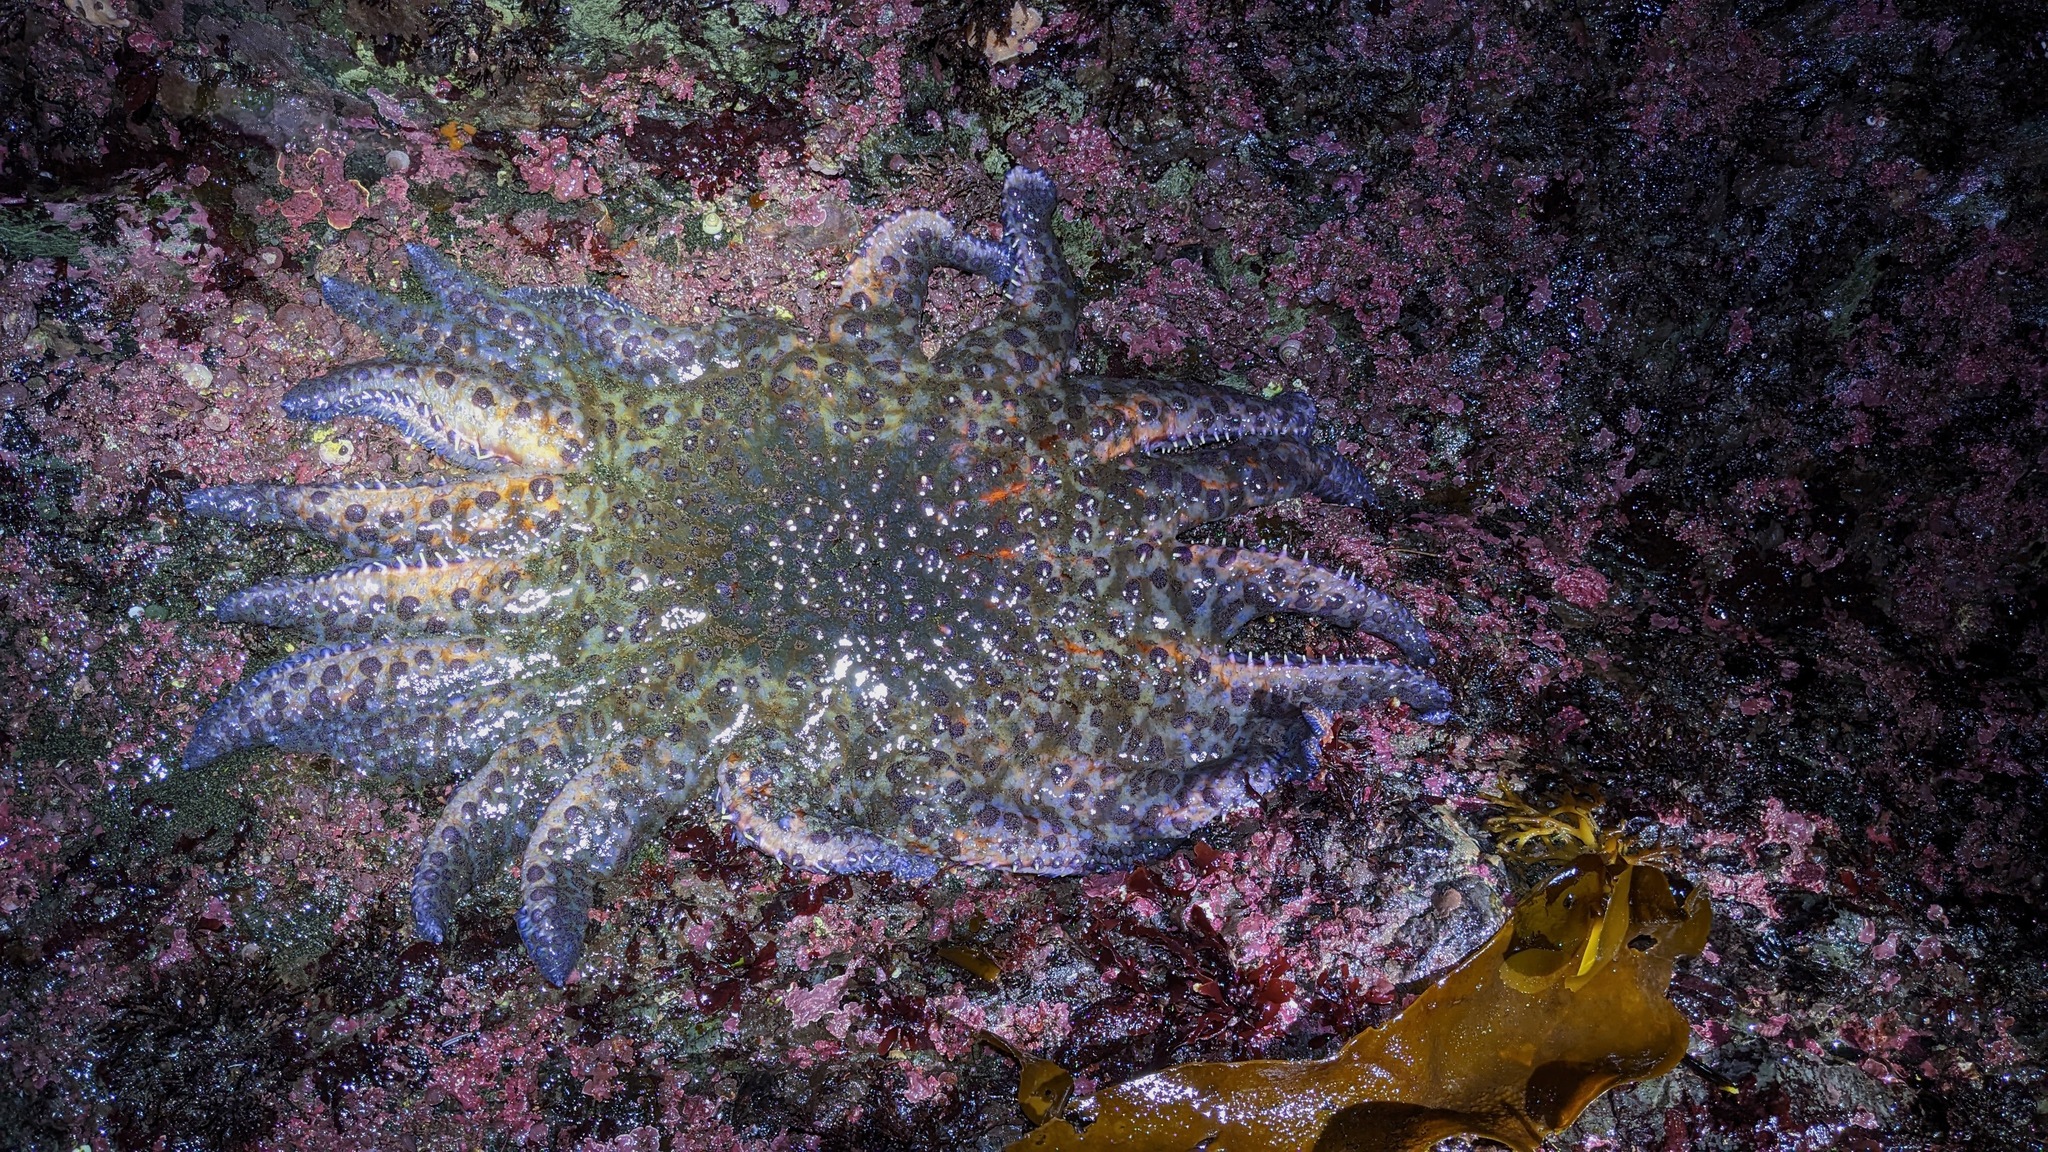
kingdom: Animalia
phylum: Echinodermata
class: Asteroidea
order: Forcipulatida
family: Asteriidae
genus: Pycnopodia
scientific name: Pycnopodia helianthoides
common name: Rag mop
